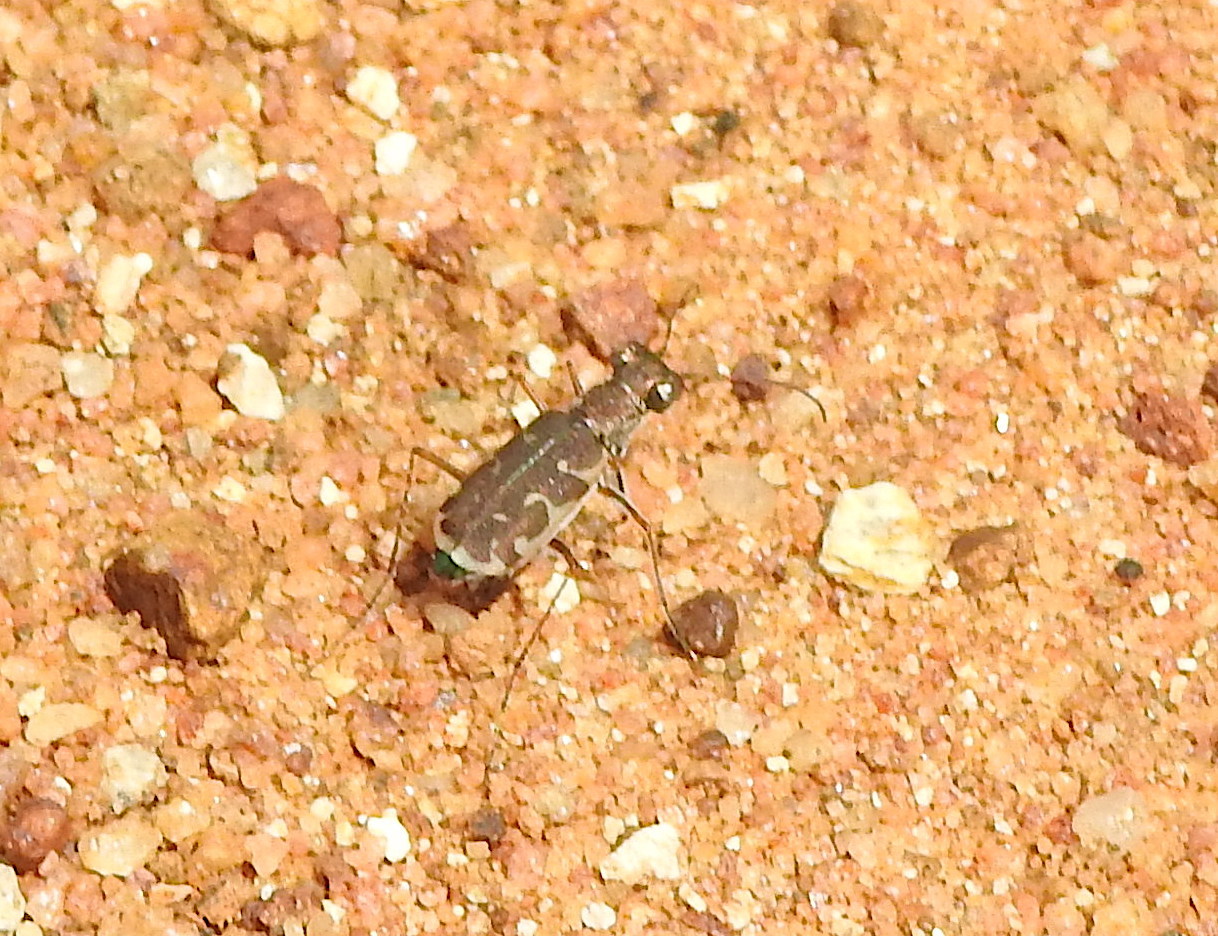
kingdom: Animalia
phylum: Arthropoda
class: Insecta
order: Coleoptera
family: Carabidae
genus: Myriochila
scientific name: Myriochila fastidiosa
